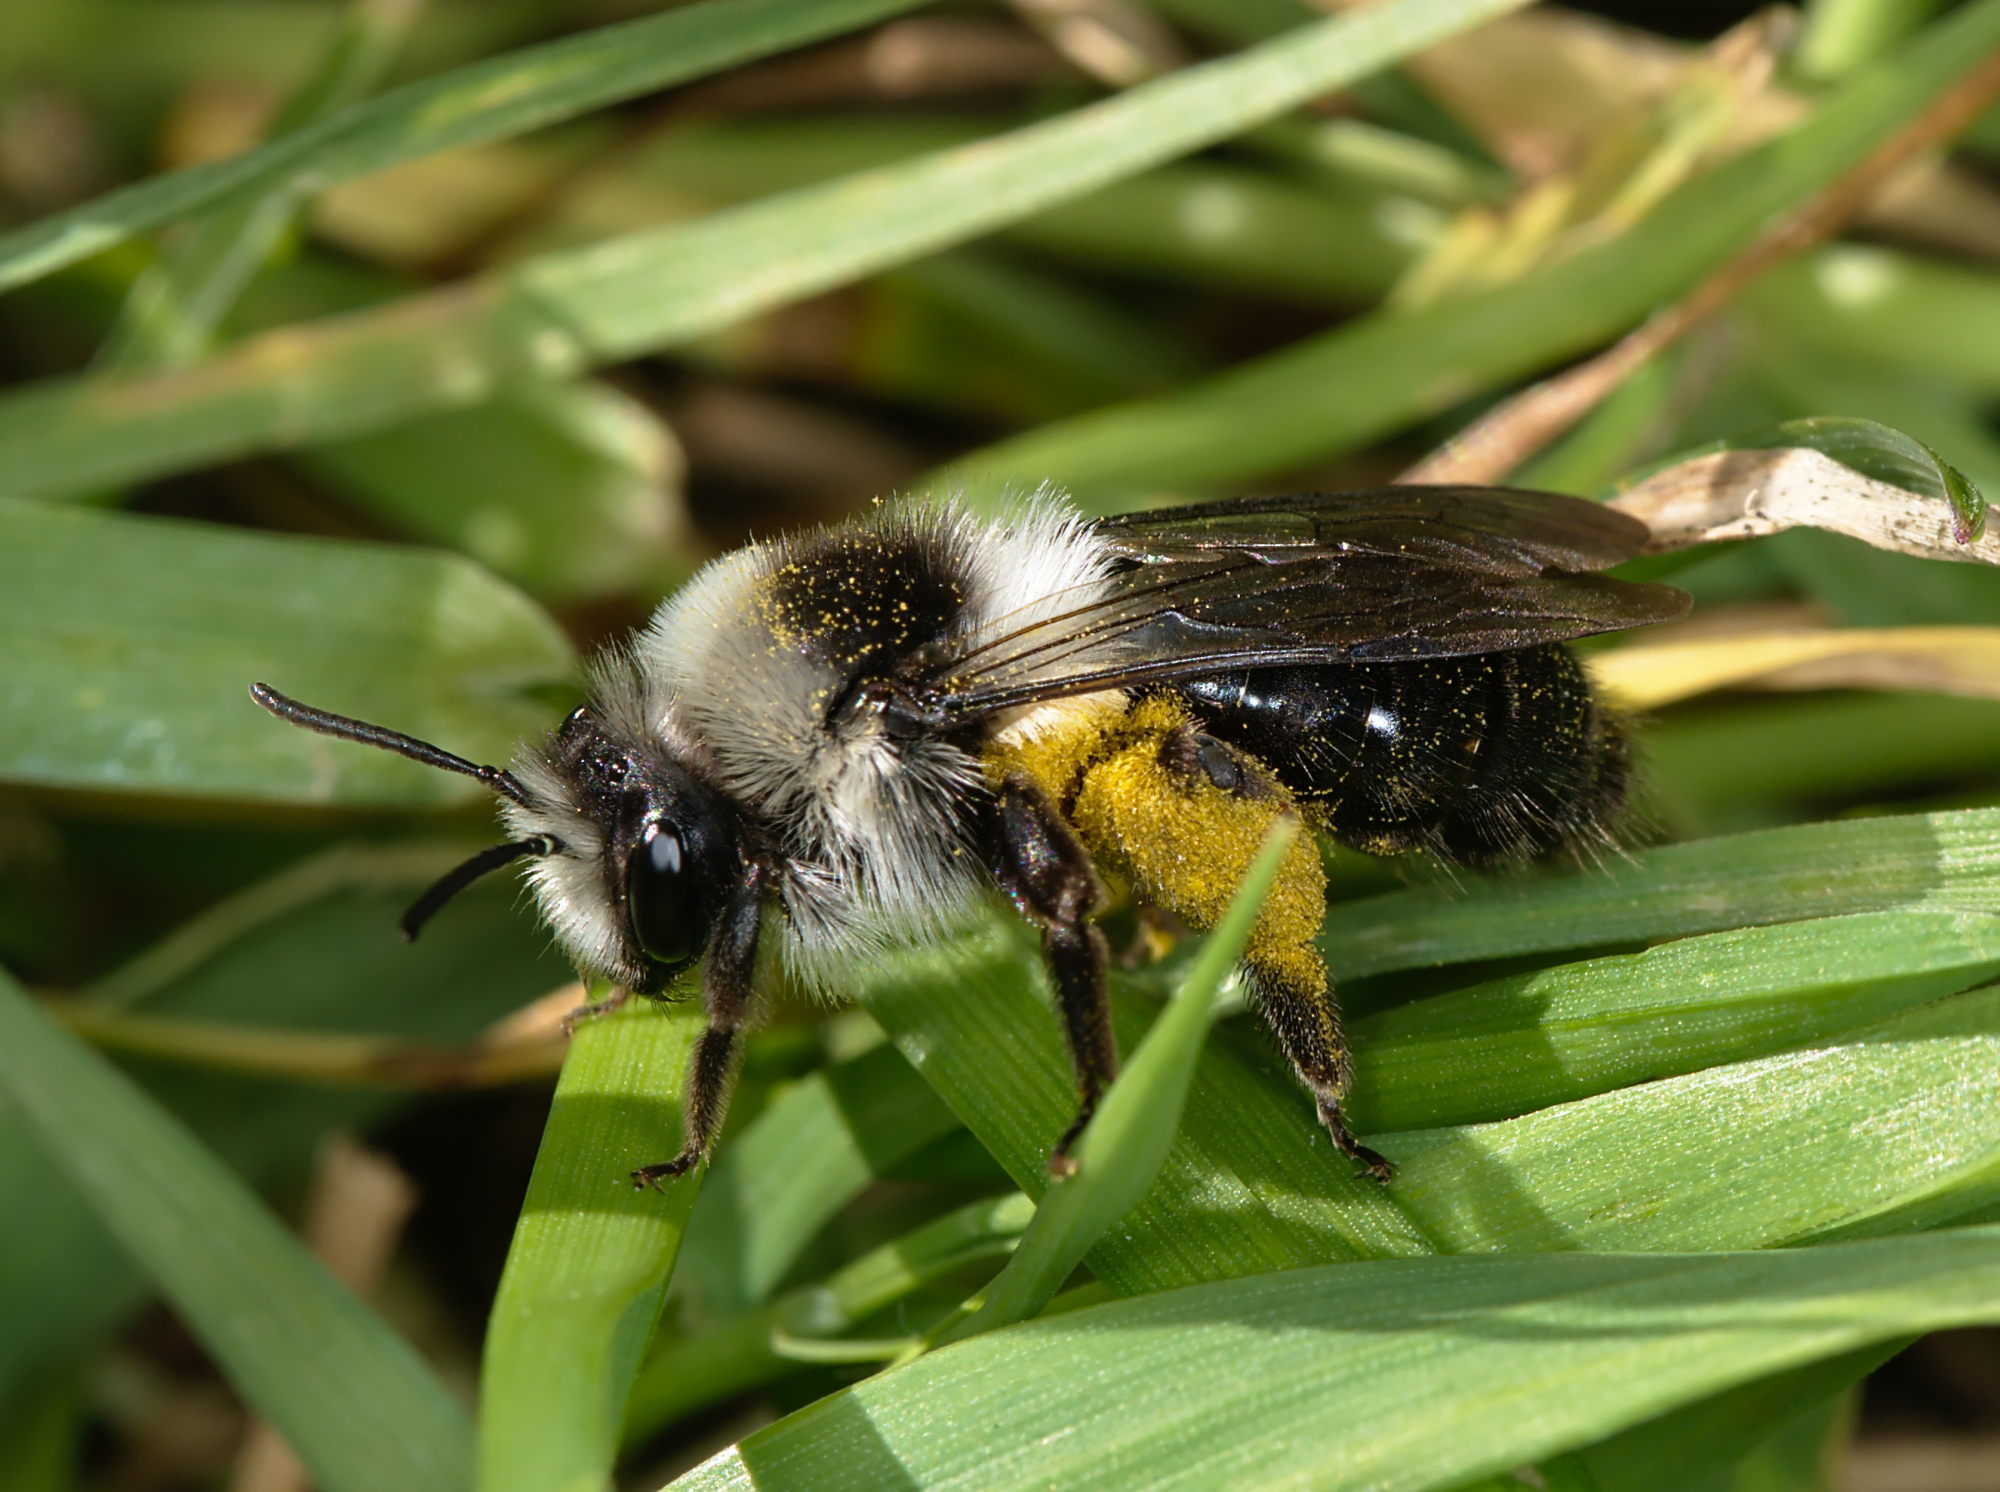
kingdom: Animalia
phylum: Arthropoda
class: Insecta
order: Hymenoptera
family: Andrenidae
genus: Andrena
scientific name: Andrena cineraria
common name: Ashy mining bee
